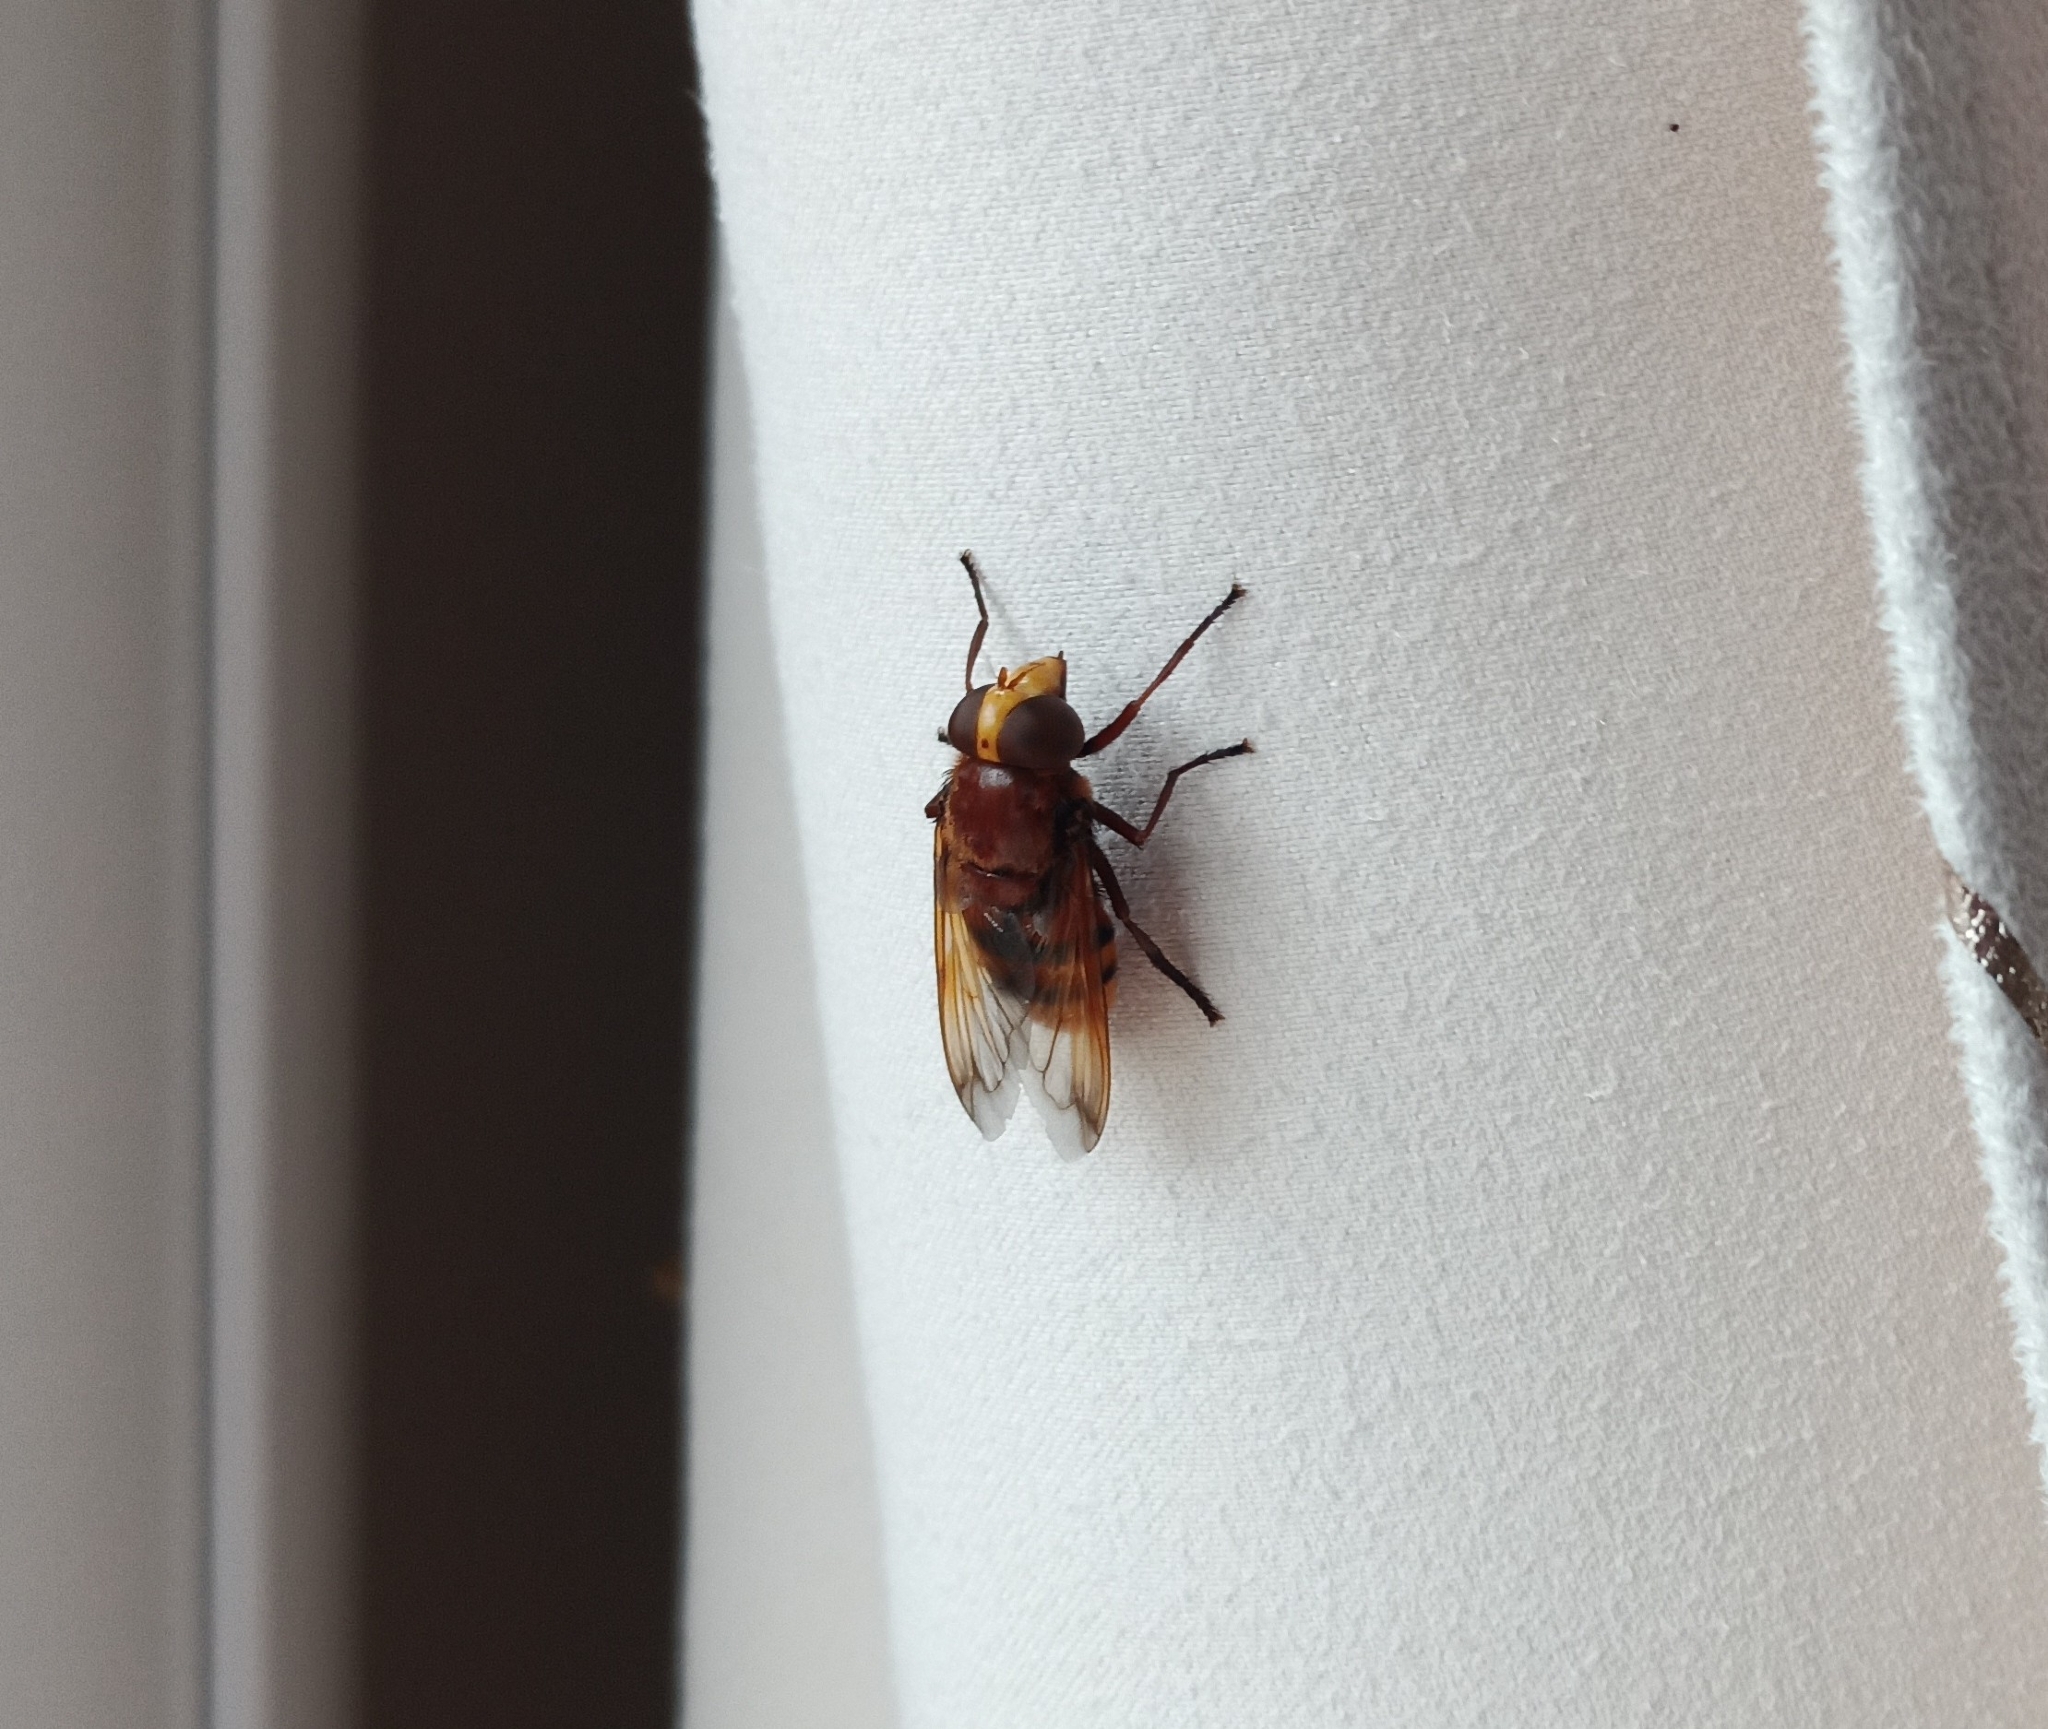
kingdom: Animalia
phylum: Arthropoda
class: Insecta
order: Diptera
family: Syrphidae
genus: Volucella
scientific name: Volucella zonaria
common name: Hornet hoverfly
